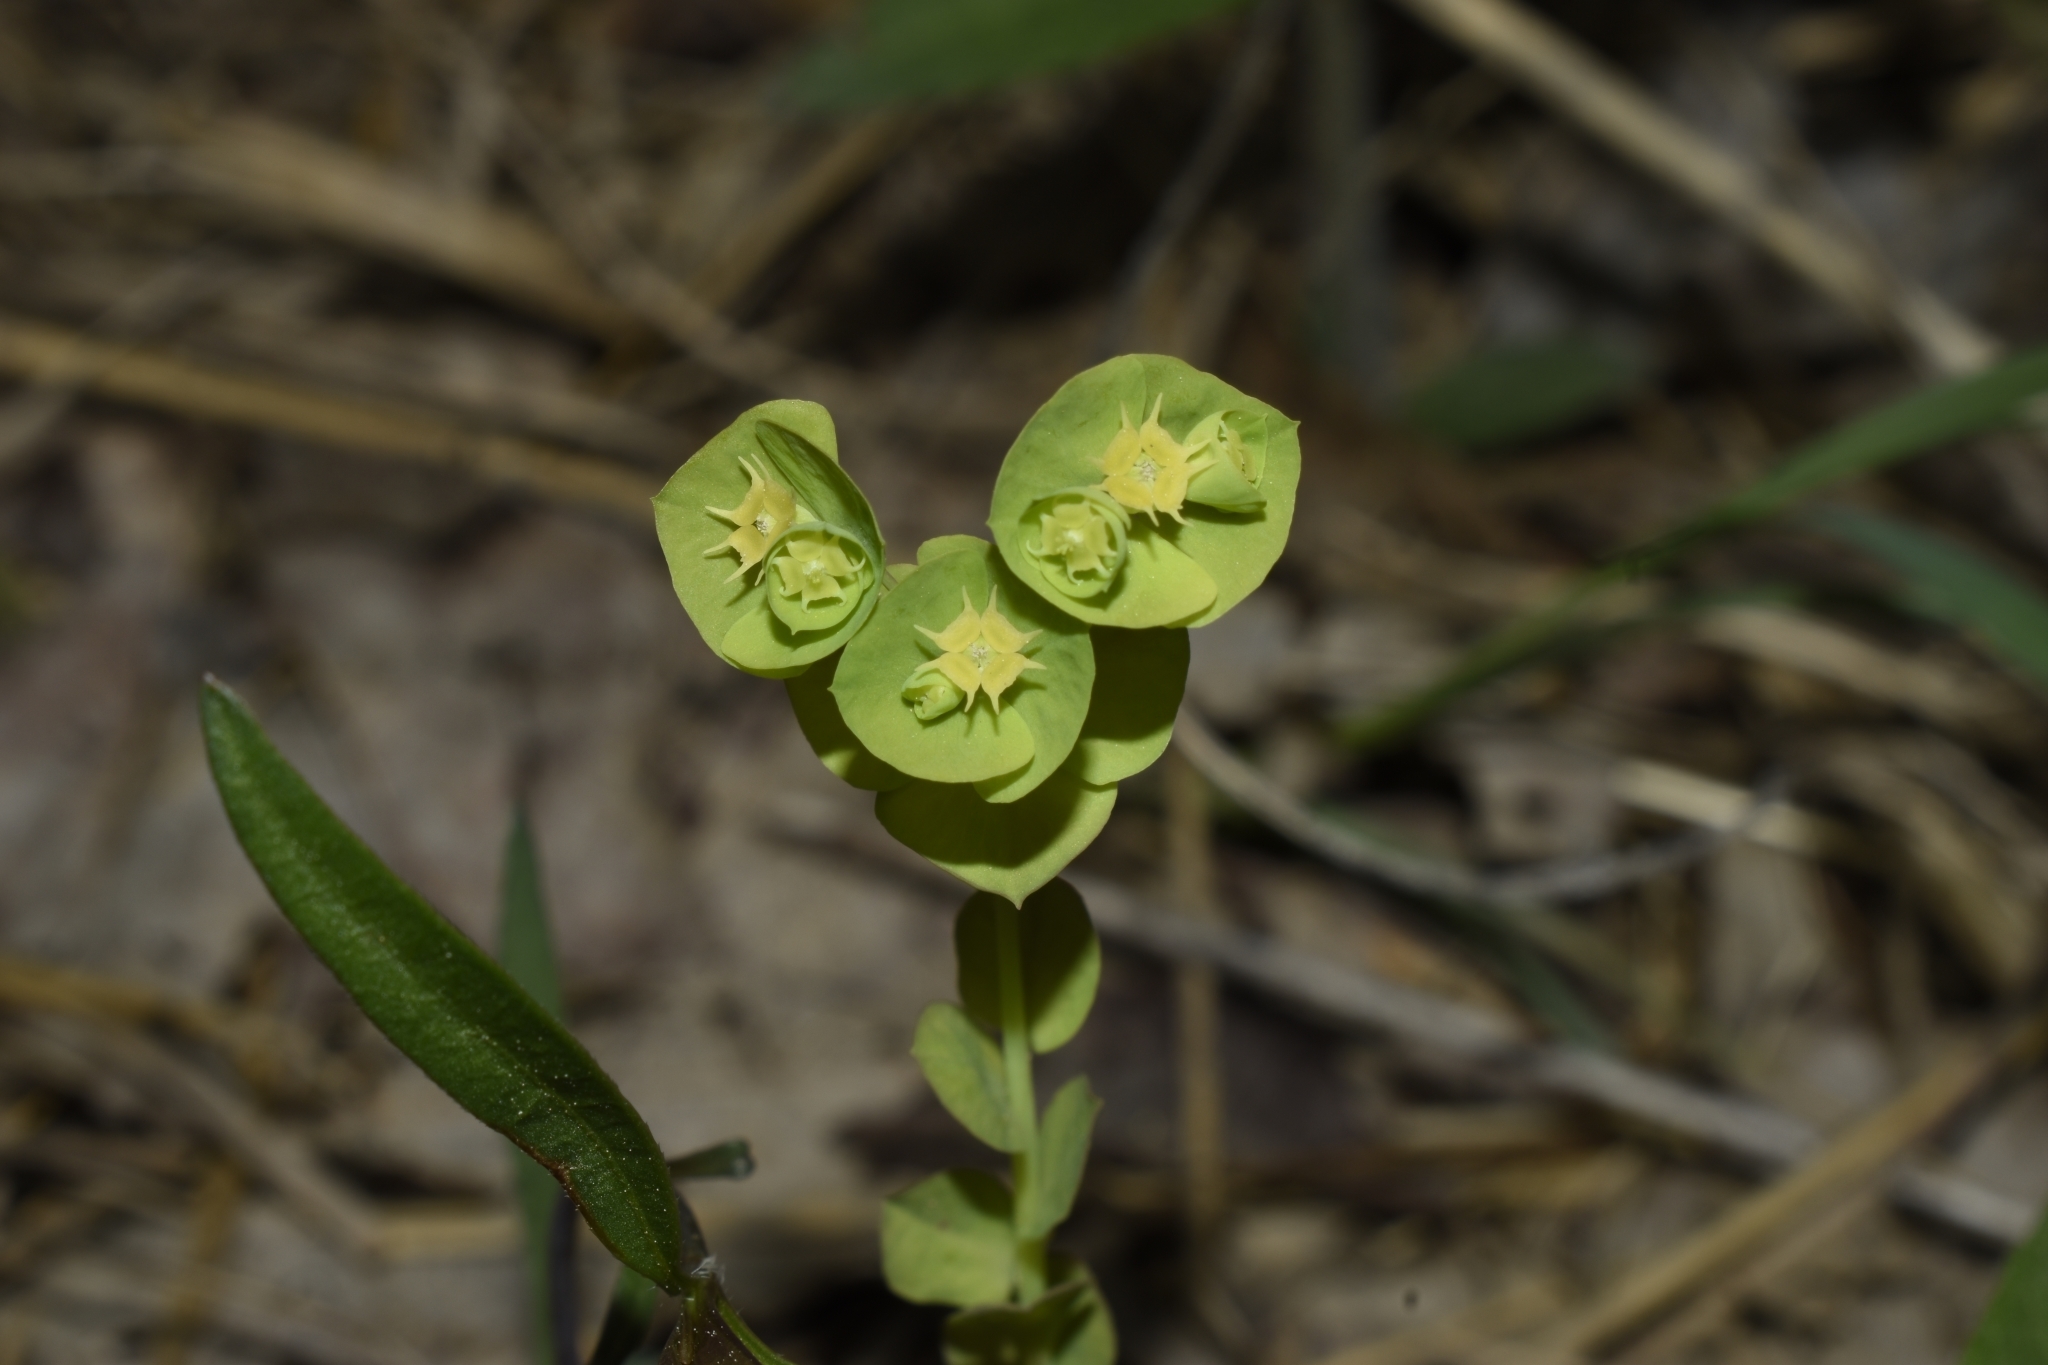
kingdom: Plantae
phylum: Tracheophyta
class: Magnoliopsida
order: Malpighiales
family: Euphorbiaceae
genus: Euphorbia
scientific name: Euphorbia commutata
